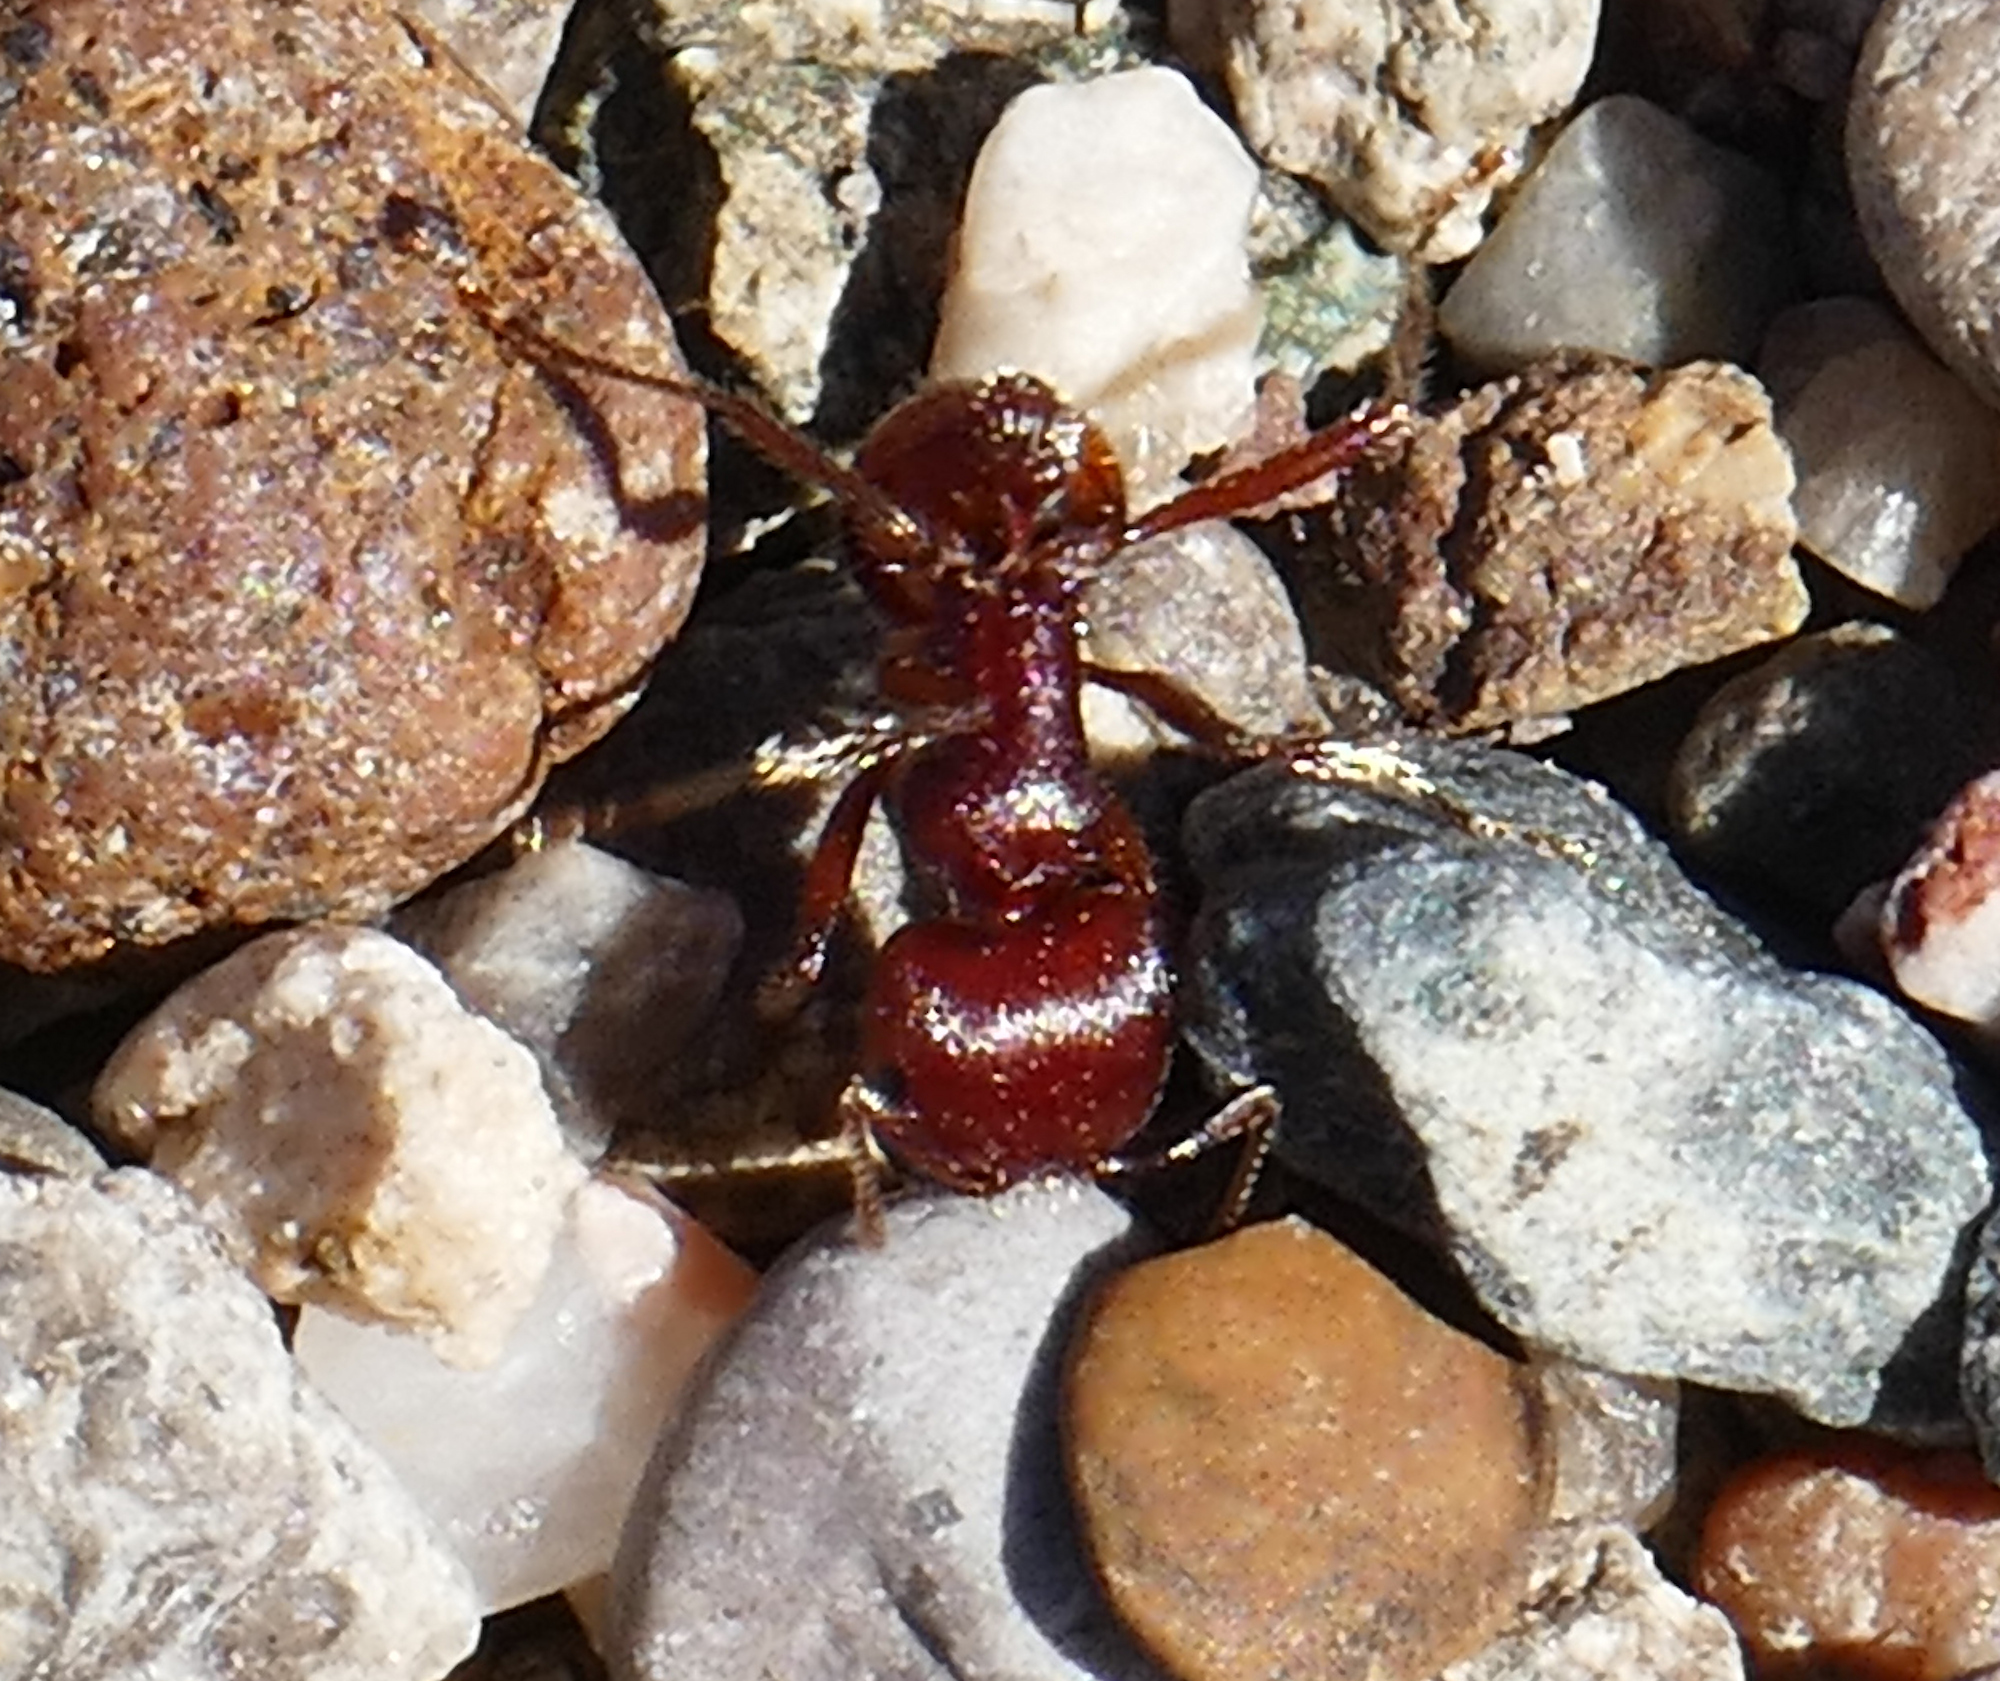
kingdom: Animalia
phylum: Arthropoda
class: Insecta
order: Hymenoptera
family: Formicidae
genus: Pogonomyrmex
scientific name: Pogonomyrmex barbatus
